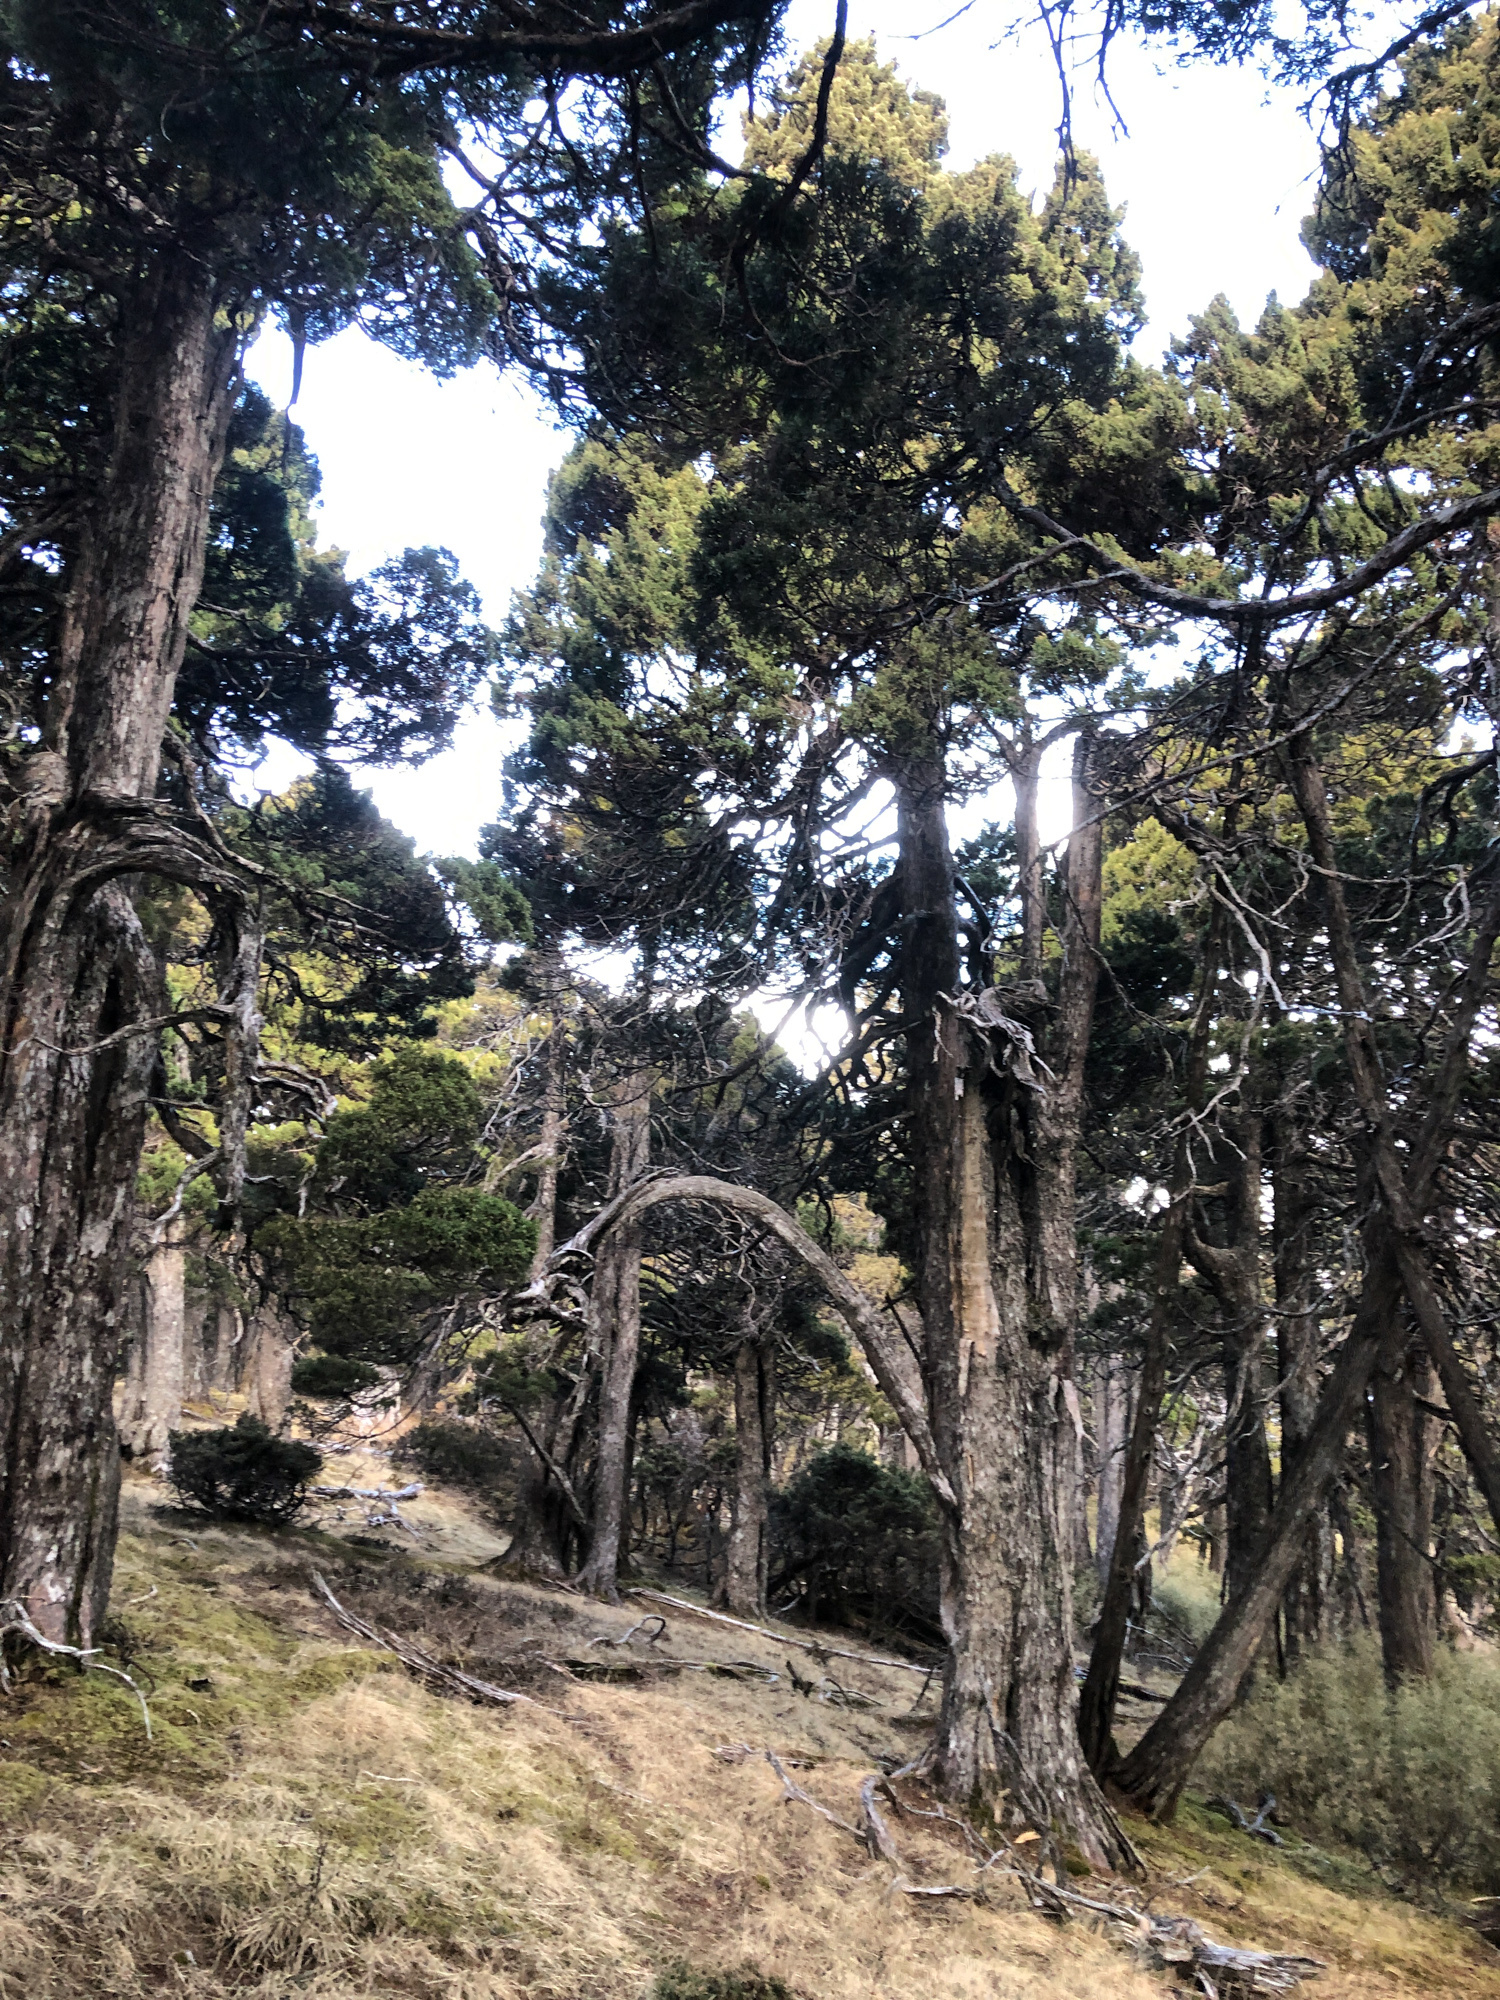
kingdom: Plantae
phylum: Tracheophyta
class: Pinopsida
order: Pinales
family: Cupressaceae
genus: Juniperus
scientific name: Juniperus squamata
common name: Flaky juniper
